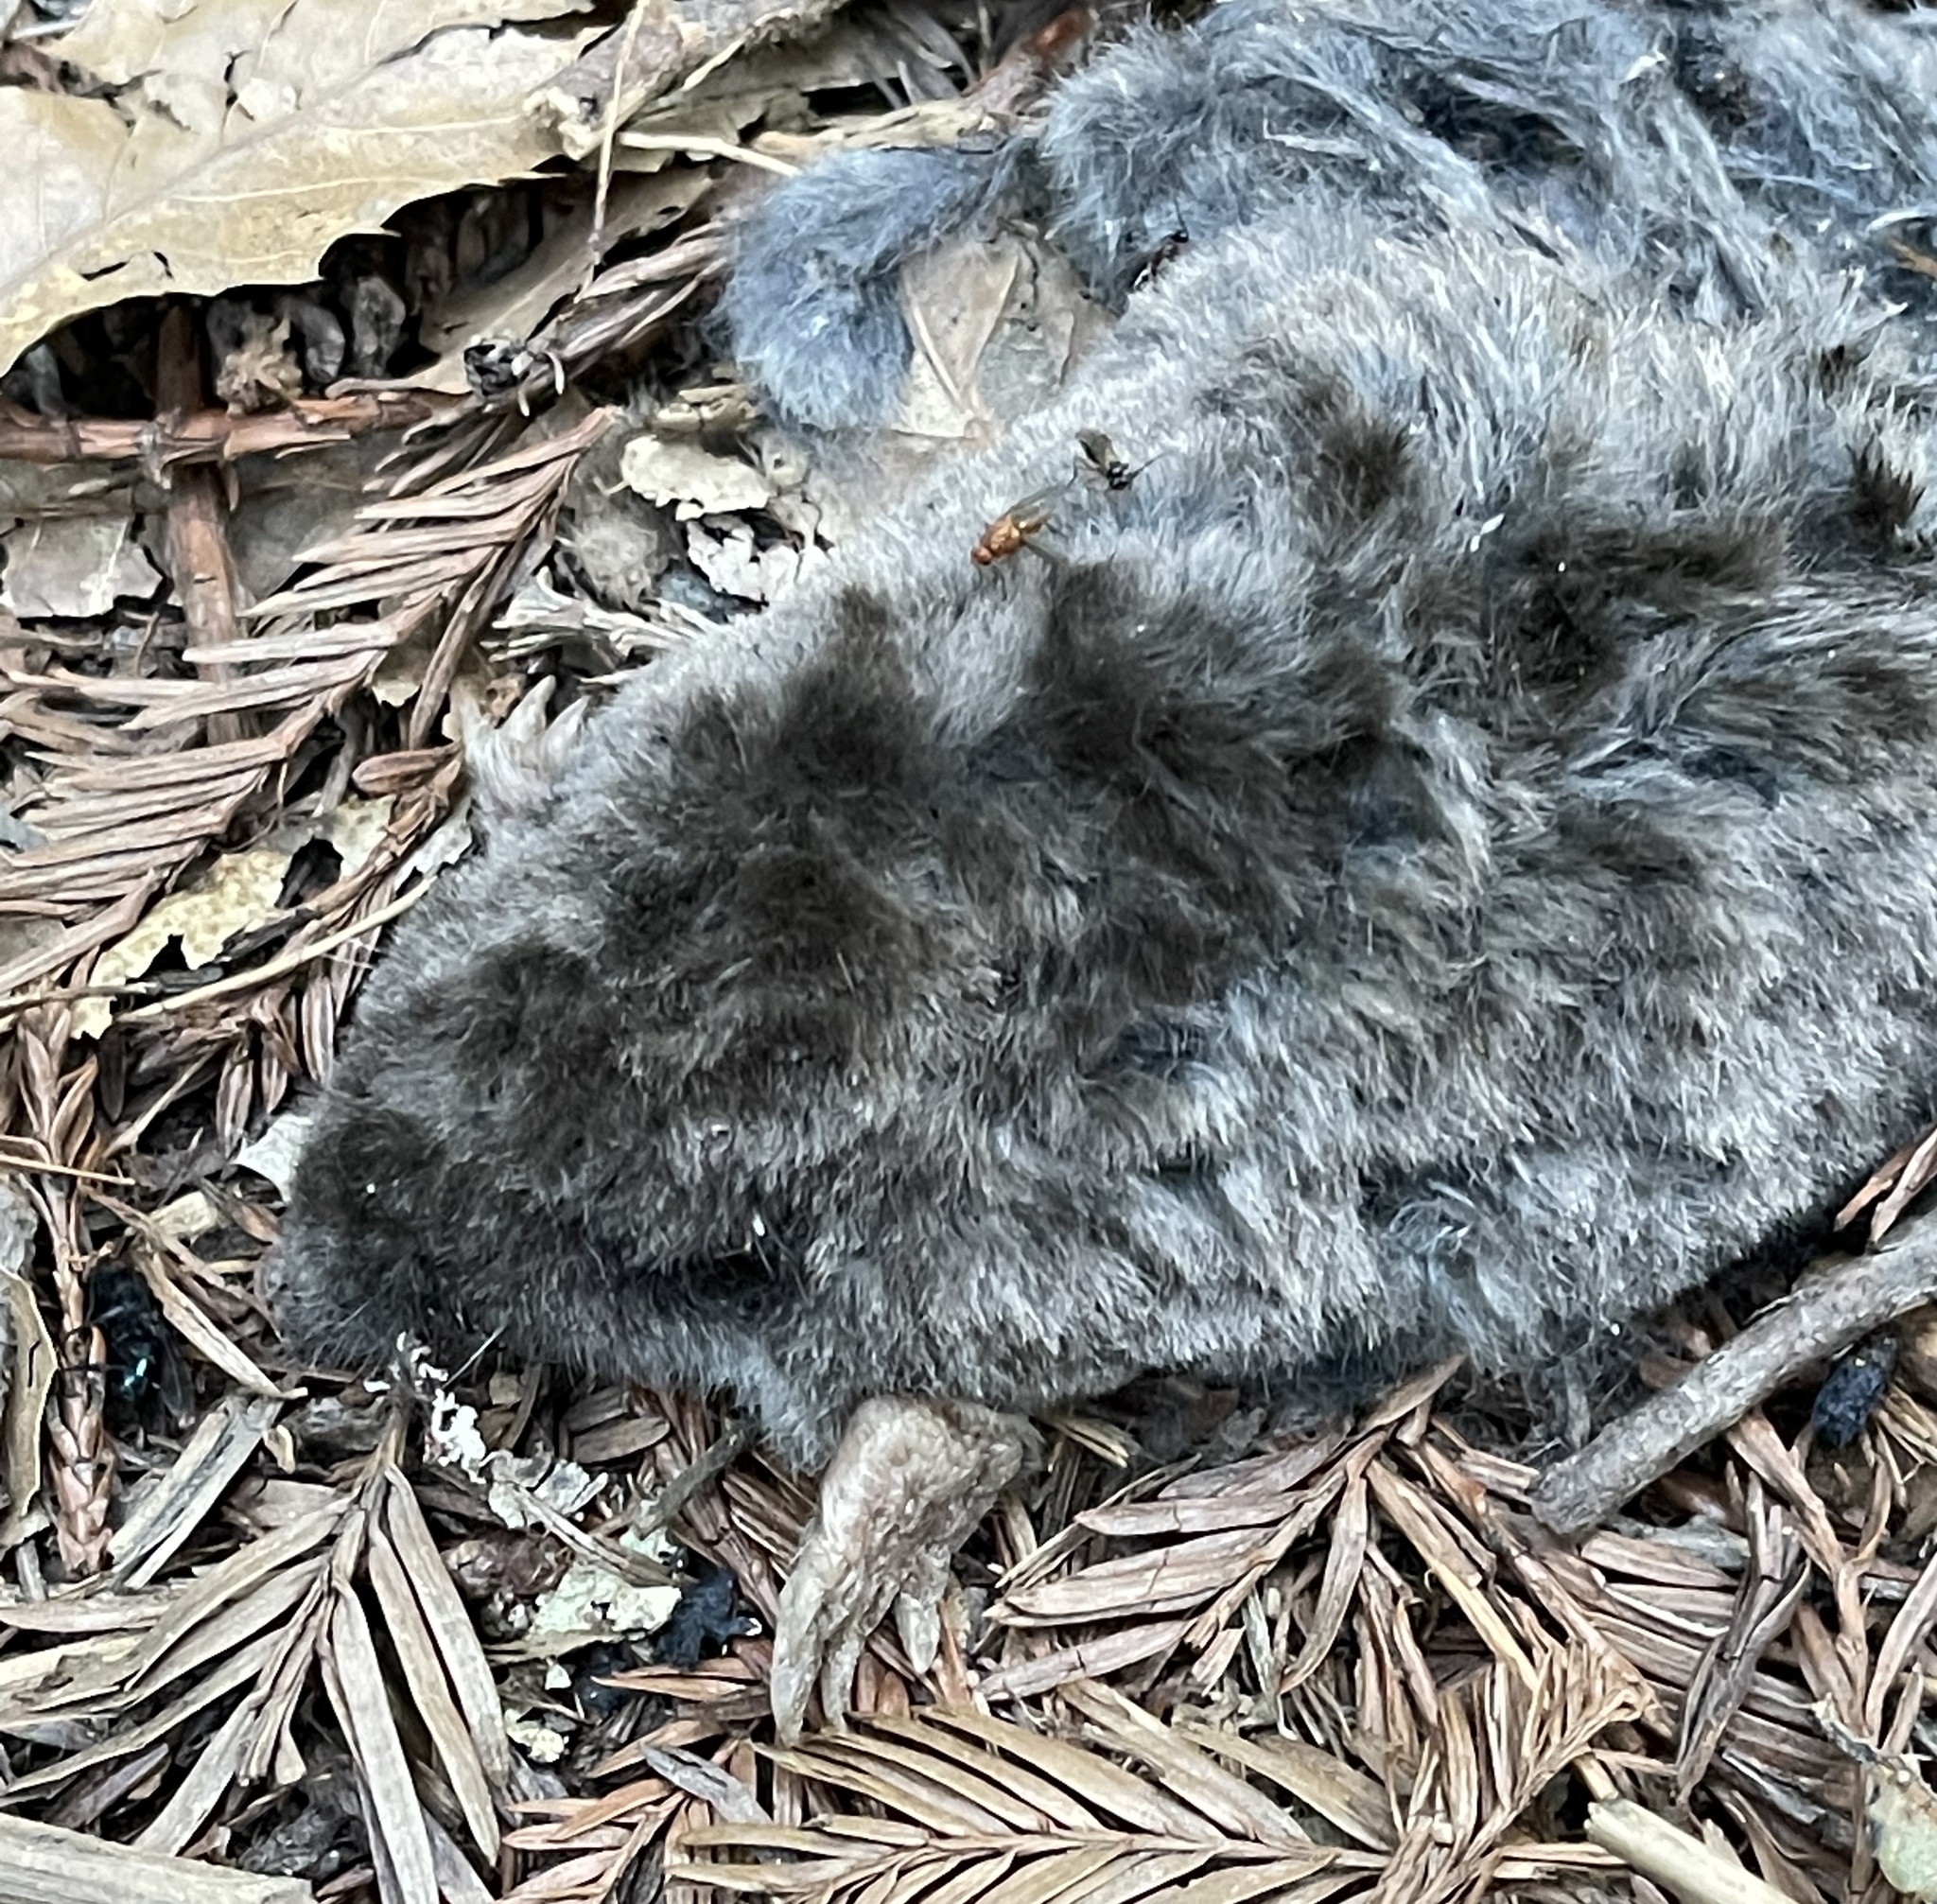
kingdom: Animalia
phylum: Chordata
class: Mammalia
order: Soricomorpha
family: Talpidae
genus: Scapanus
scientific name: Scapanus latimanus
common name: Broad-footed mole
